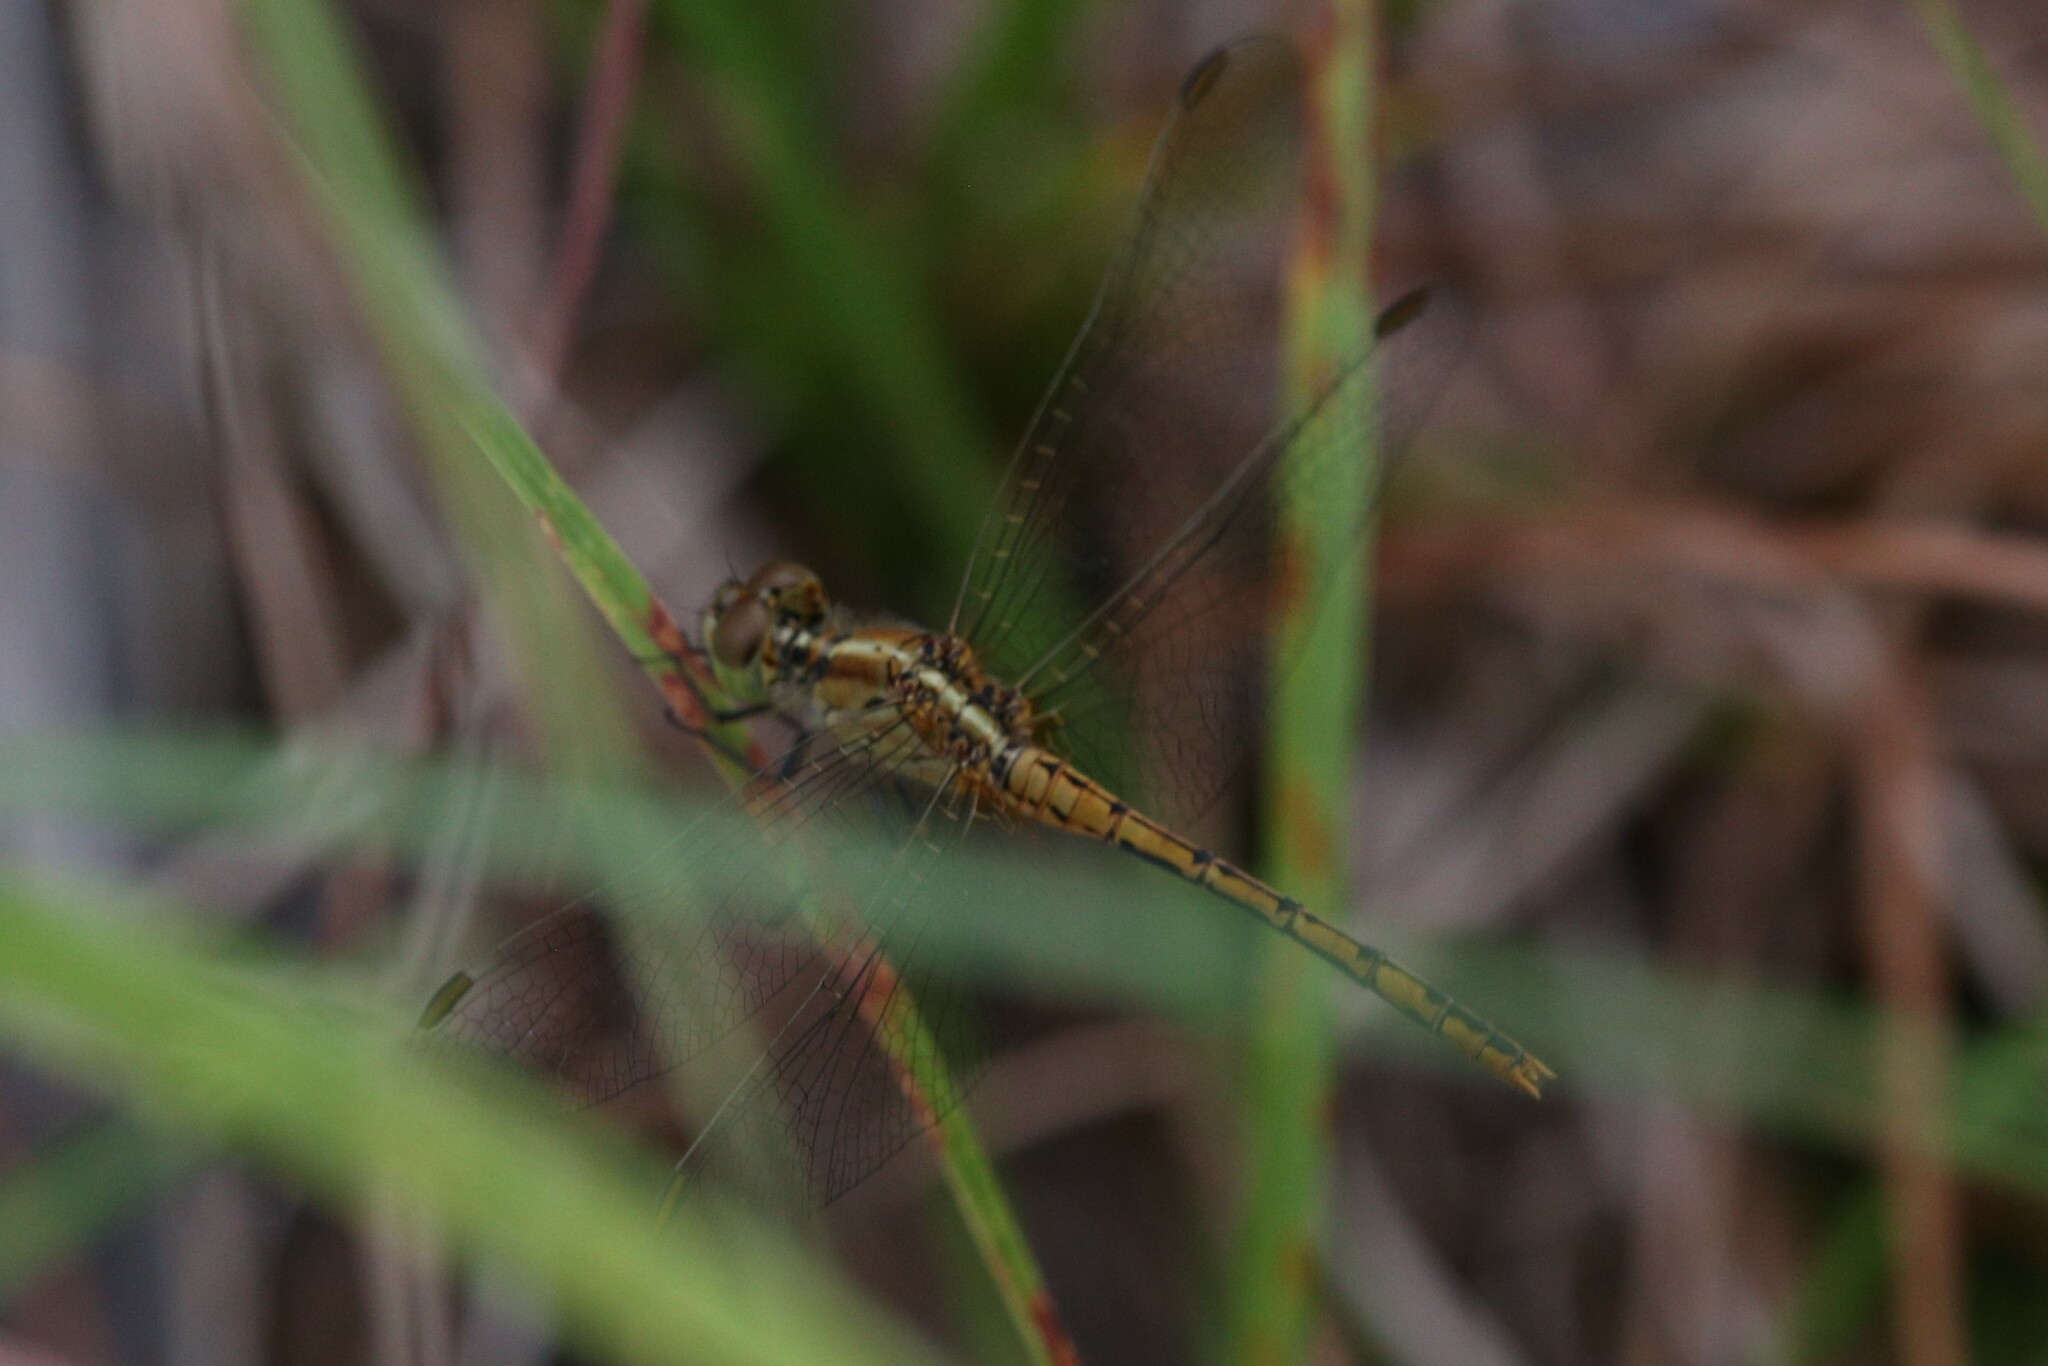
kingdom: Animalia
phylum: Arthropoda
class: Insecta
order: Odonata
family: Libellulidae
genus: Diplacodes
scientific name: Diplacodes bipunctata
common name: Red percher dragonfly
